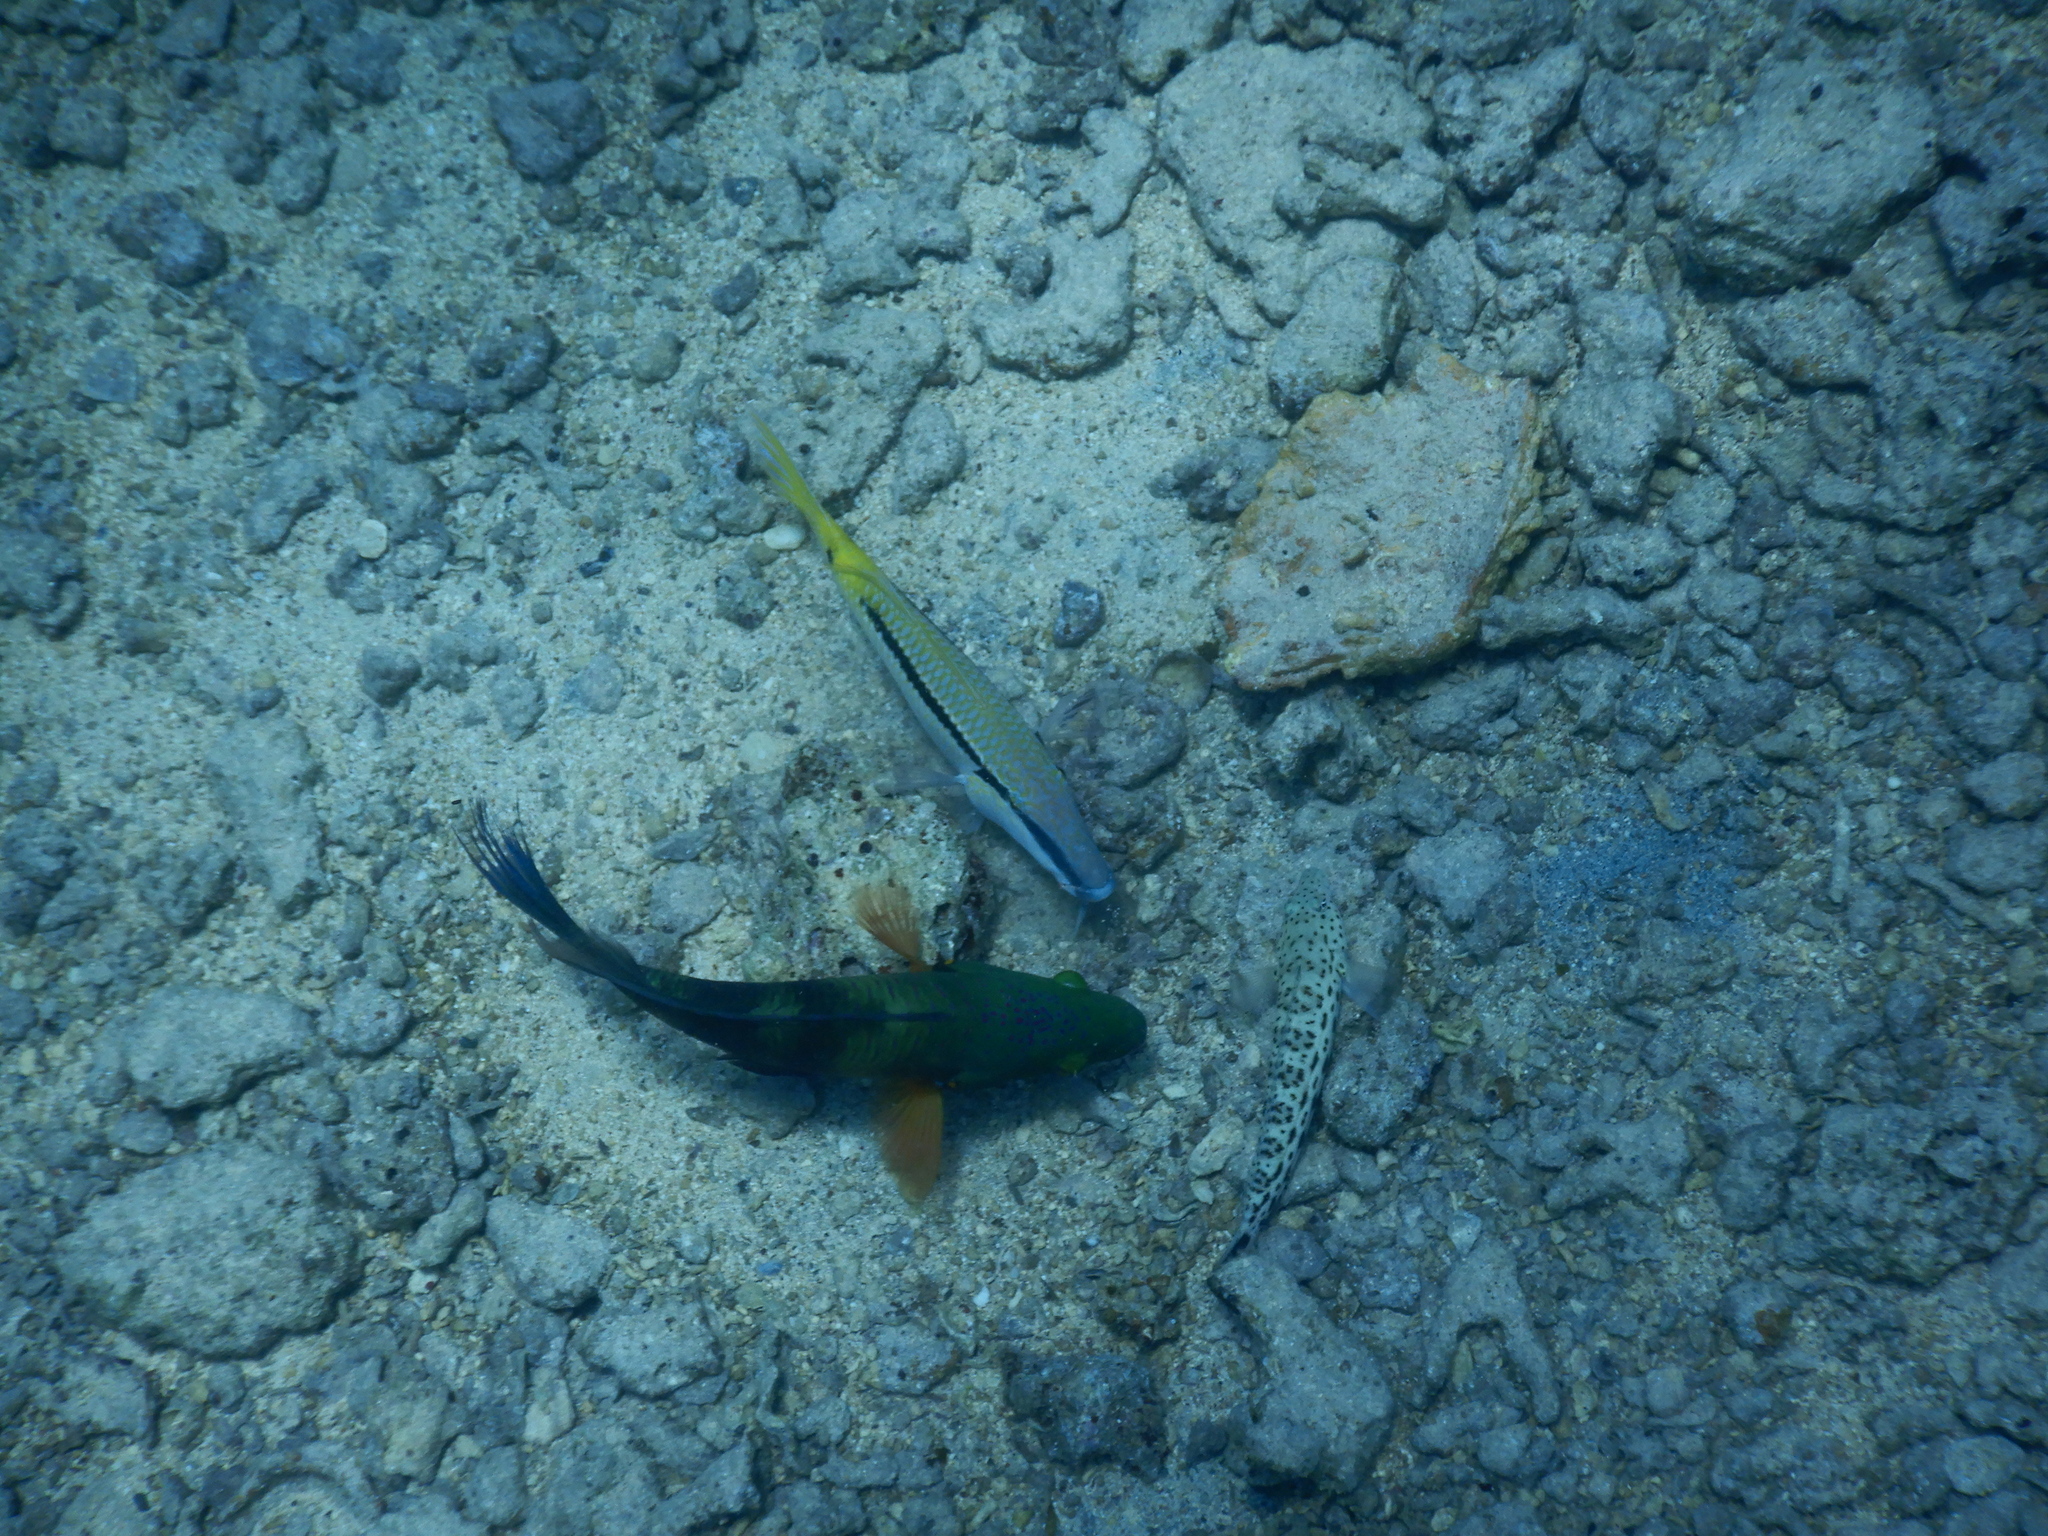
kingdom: Animalia
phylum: Chordata
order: Perciformes
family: Mullidae
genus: Parupeneus
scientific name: Parupeneus forsskali
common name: Red sea goatfish
